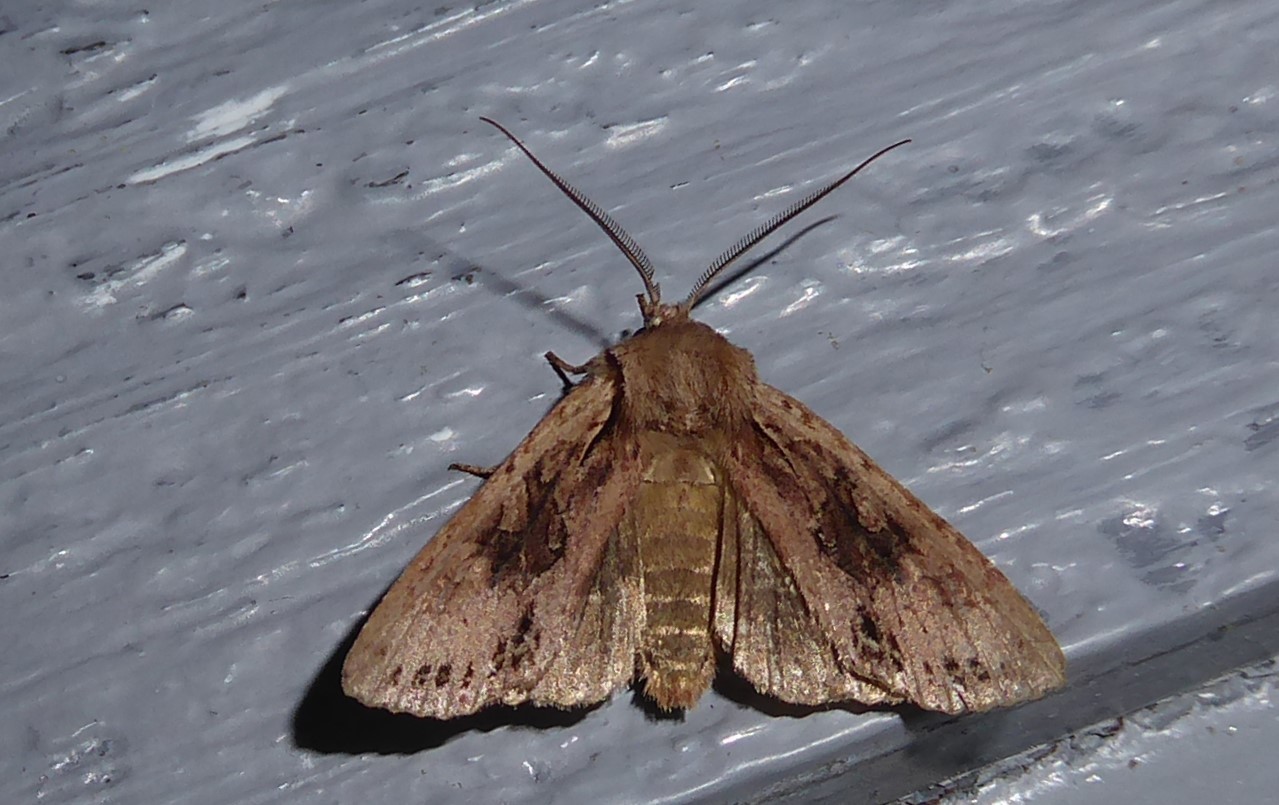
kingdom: Animalia
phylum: Arthropoda
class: Insecta
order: Lepidoptera
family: Noctuidae
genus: Ichneutica
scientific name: Ichneutica
